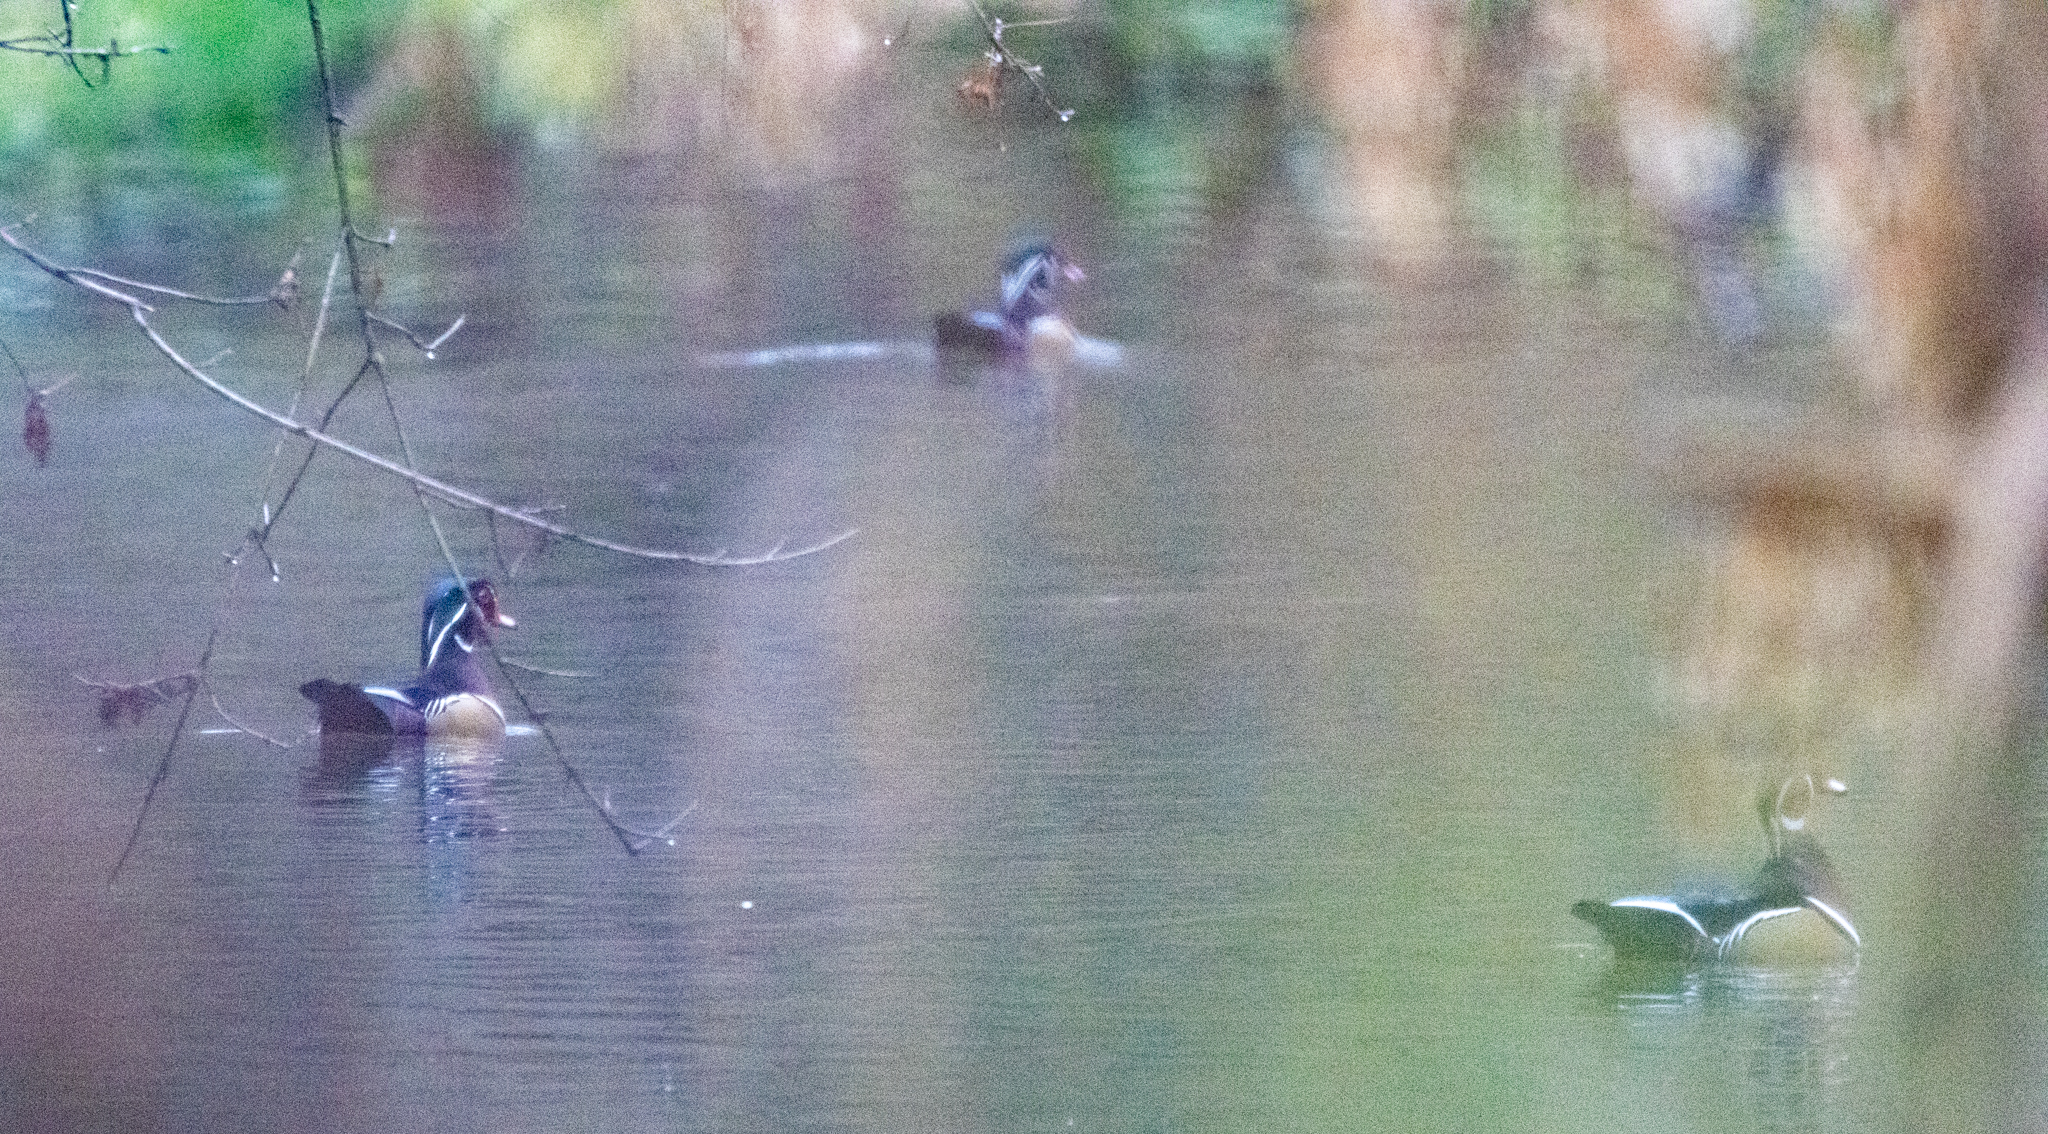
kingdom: Animalia
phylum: Chordata
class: Aves
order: Anseriformes
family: Anatidae
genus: Aix
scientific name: Aix sponsa
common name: Wood duck
